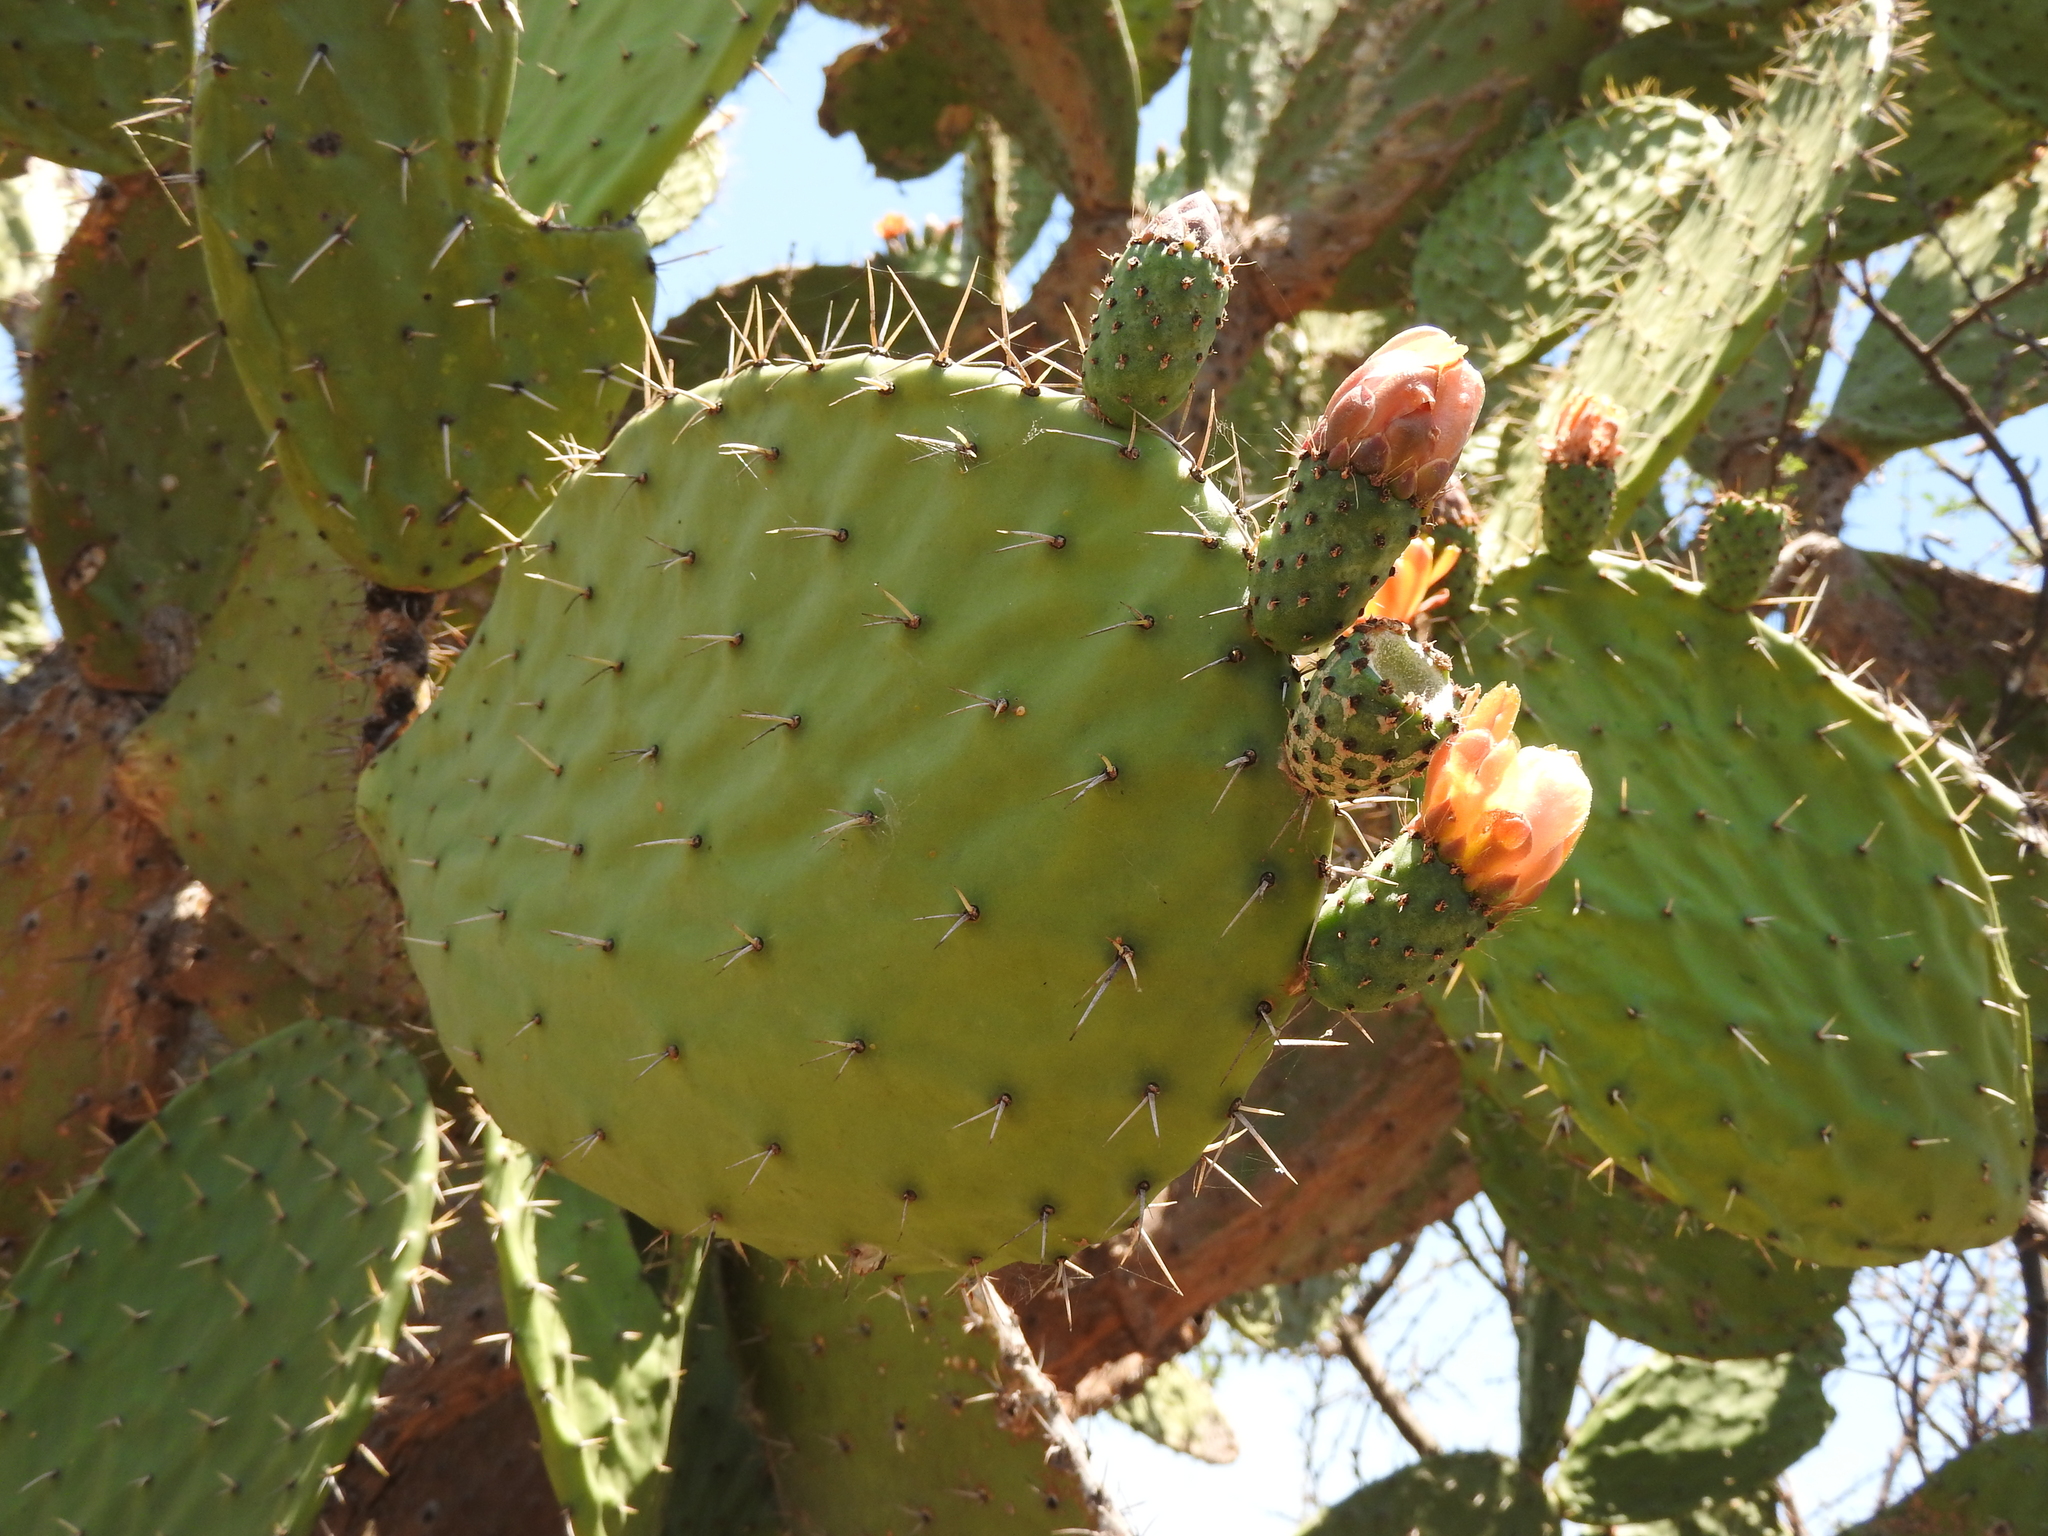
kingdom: Plantae
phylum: Tracheophyta
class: Magnoliopsida
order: Caryophyllales
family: Cactaceae
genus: Opuntia
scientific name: Opuntia hyptiacantha
